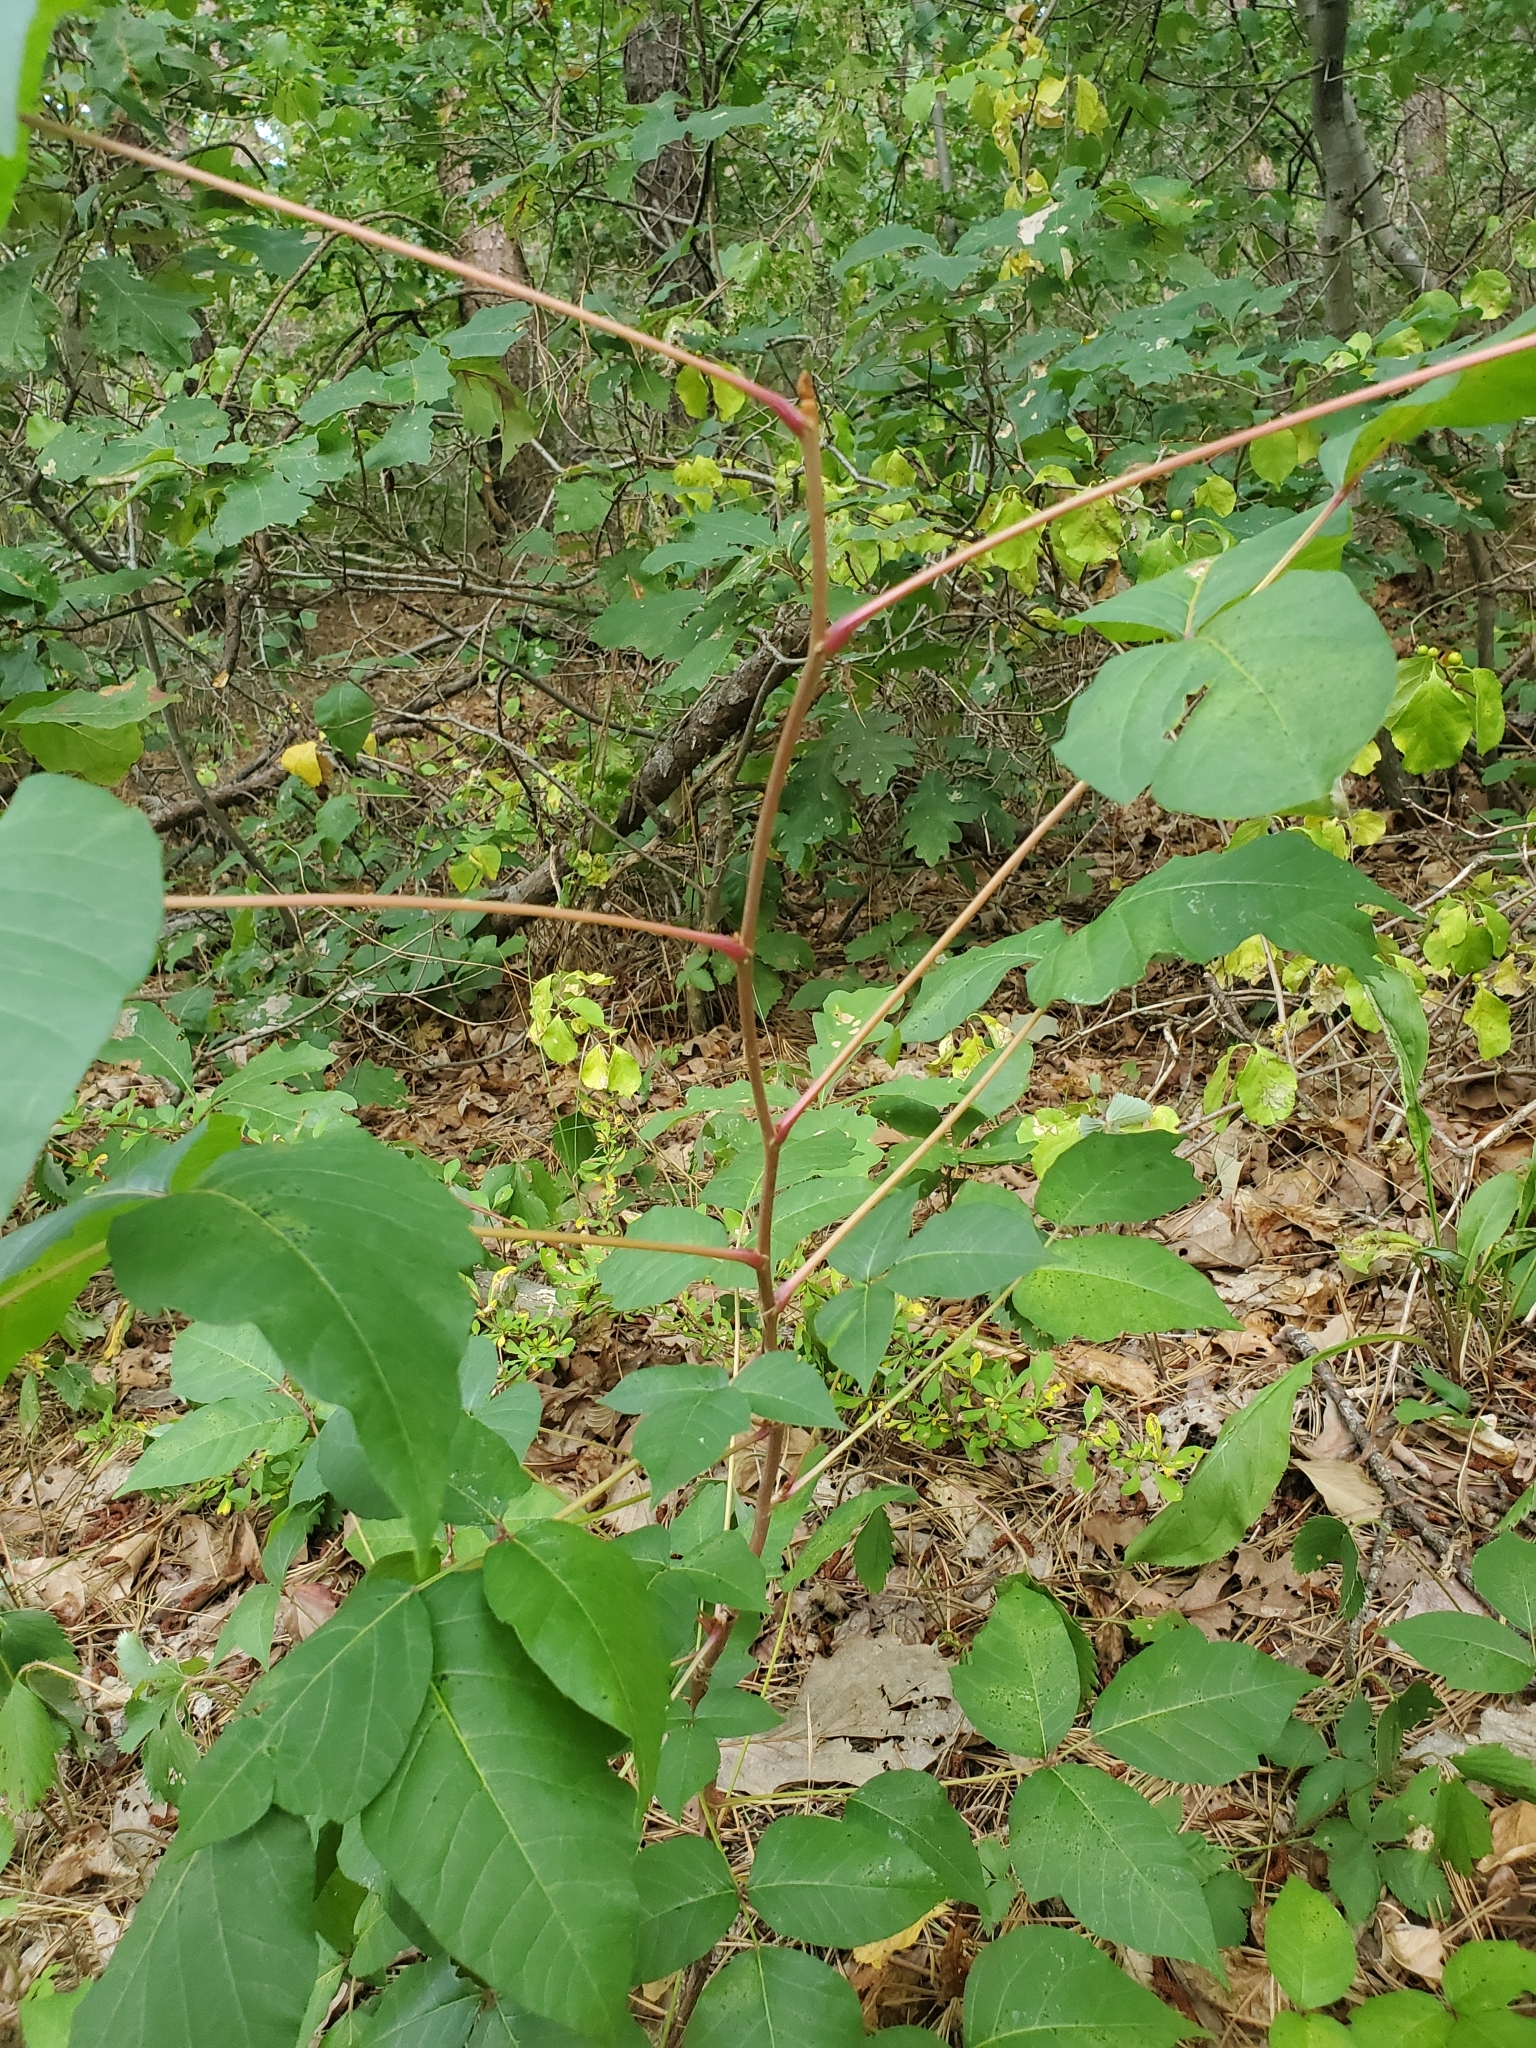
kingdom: Plantae
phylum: Tracheophyta
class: Magnoliopsida
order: Sapindales
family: Anacardiaceae
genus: Toxicodendron
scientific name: Toxicodendron radicans
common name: Poison ivy
